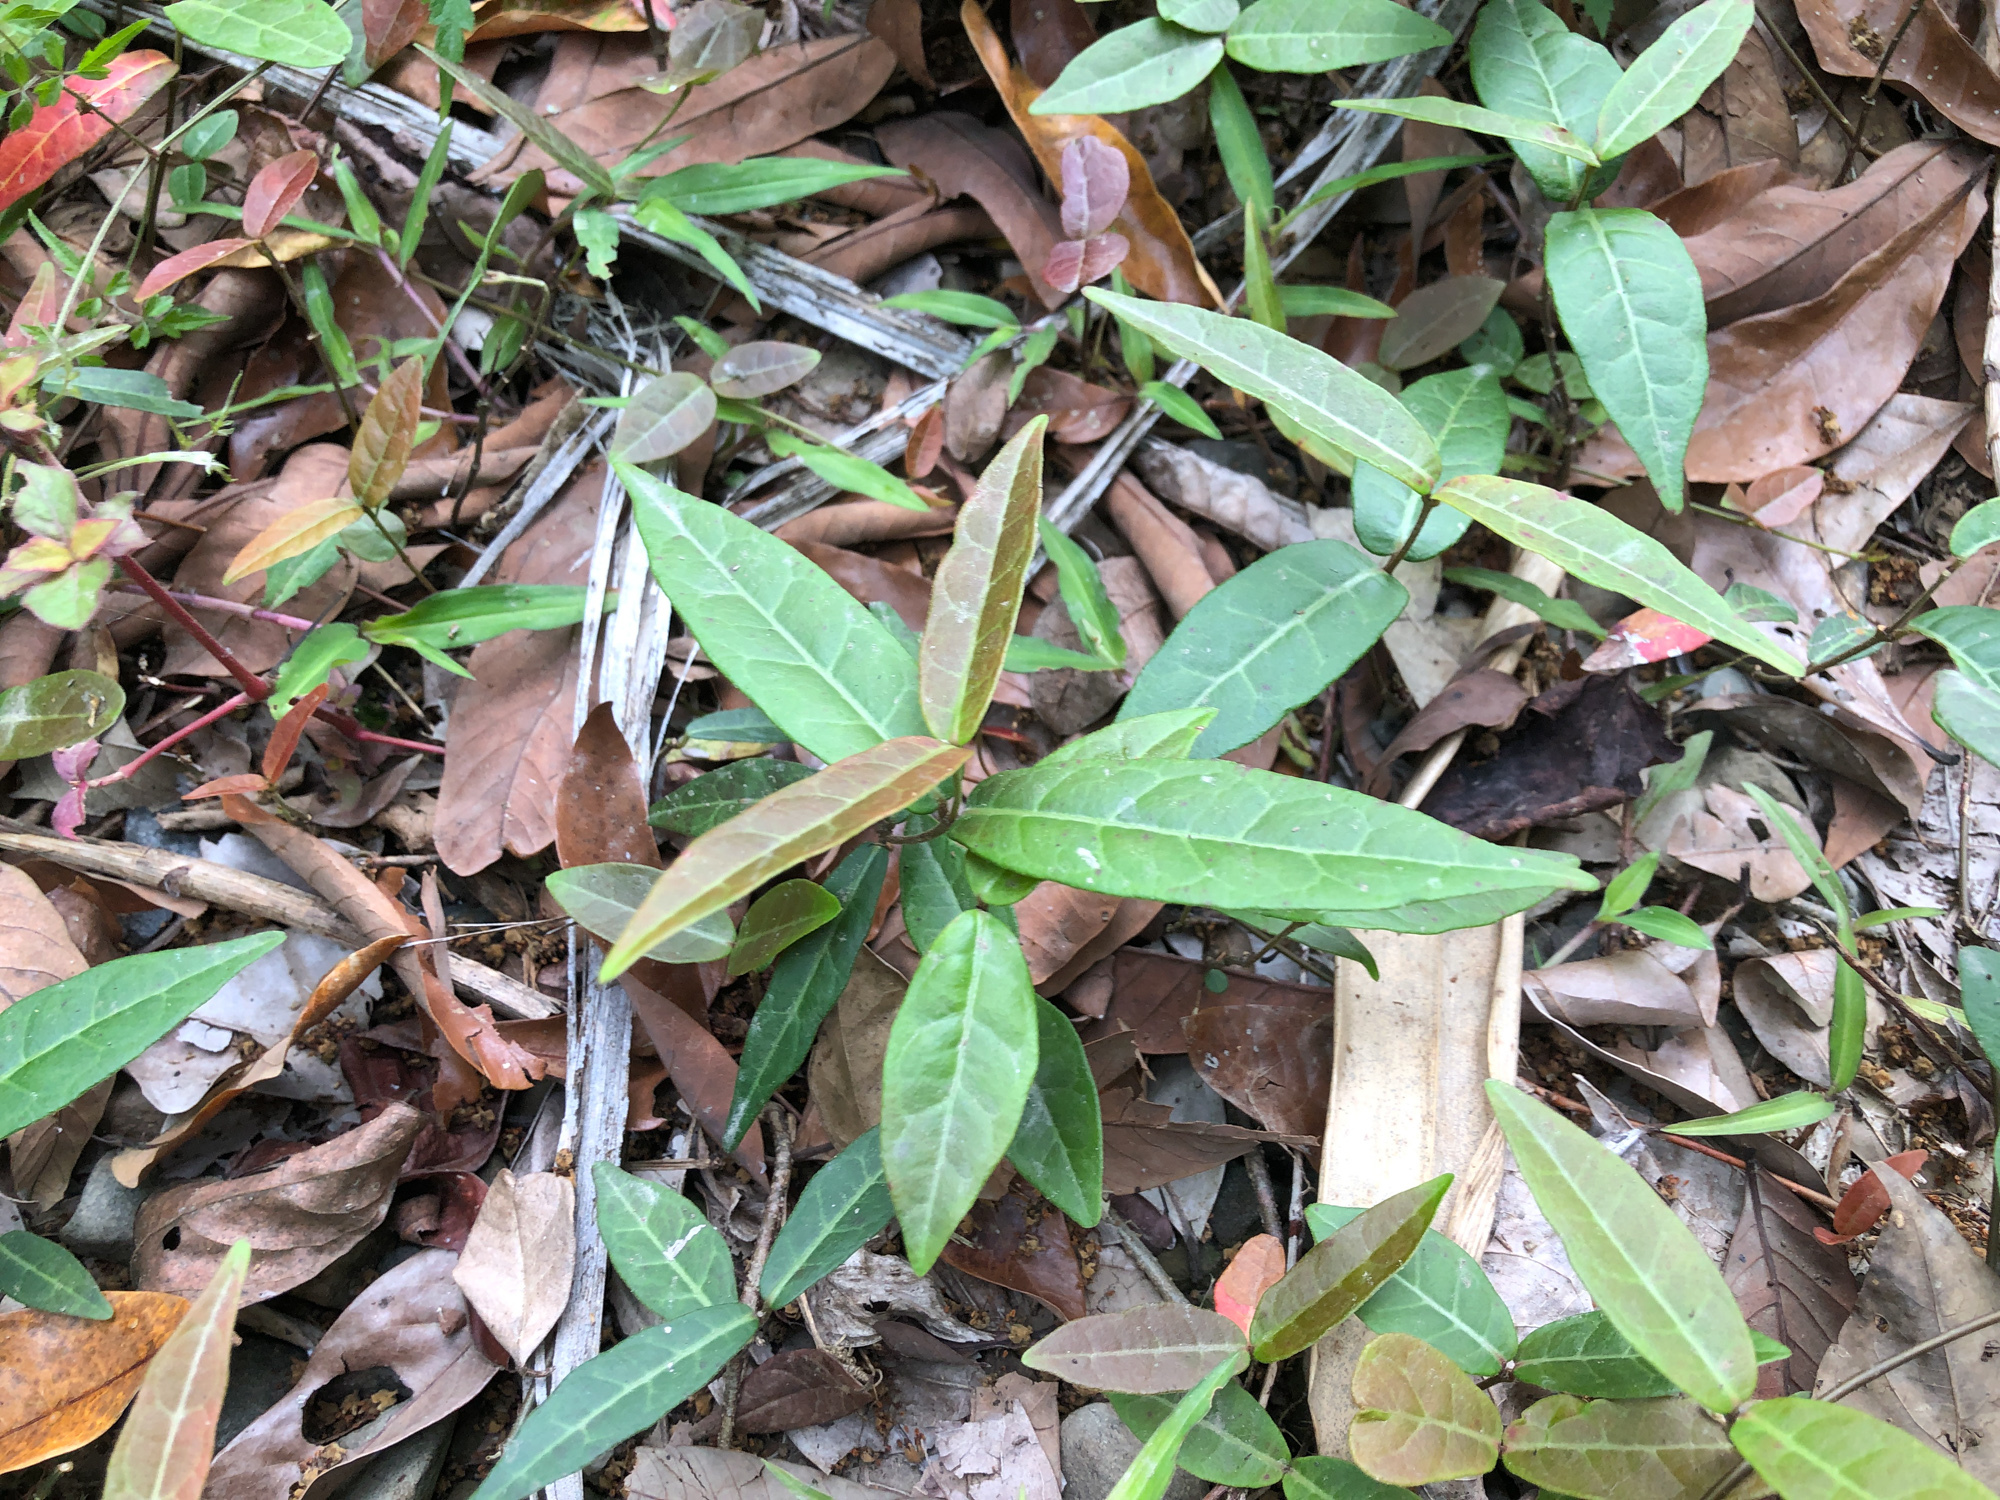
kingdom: Plantae
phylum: Tracheophyta
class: Magnoliopsida
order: Gentianales
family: Apocynaceae
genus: Trachelospermum
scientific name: Trachelospermum jasminoides
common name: Confederate jasmine
